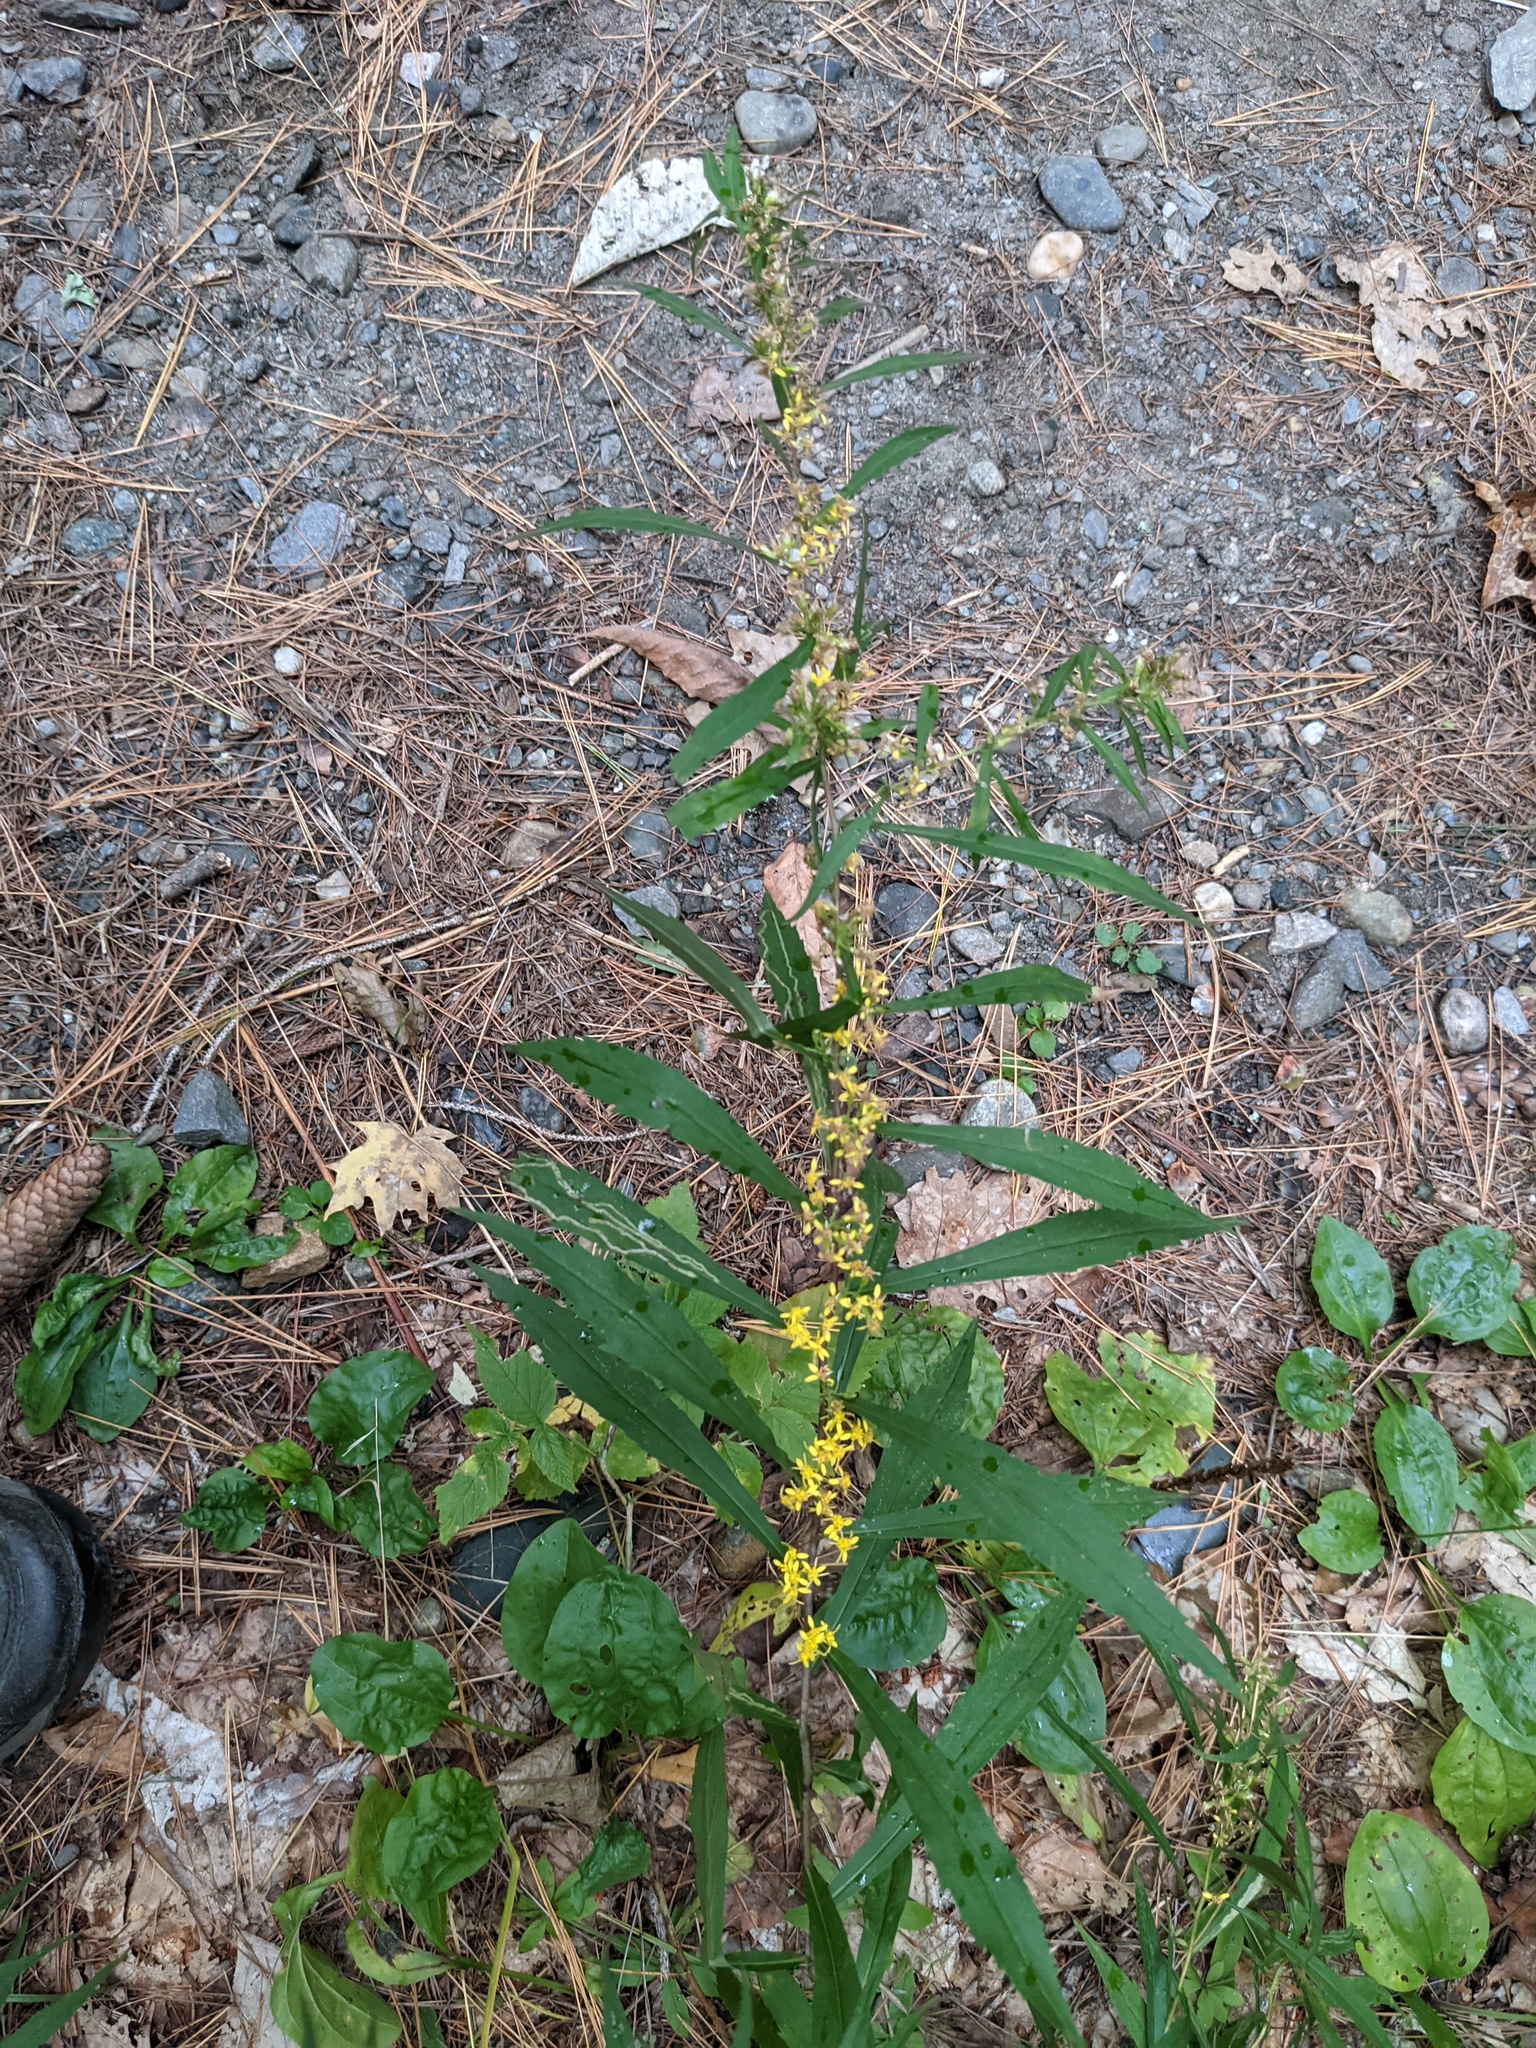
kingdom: Plantae
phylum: Tracheophyta
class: Magnoliopsida
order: Asterales
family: Asteraceae
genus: Solidago
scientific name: Solidago caesia
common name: Woodland goldenrod
